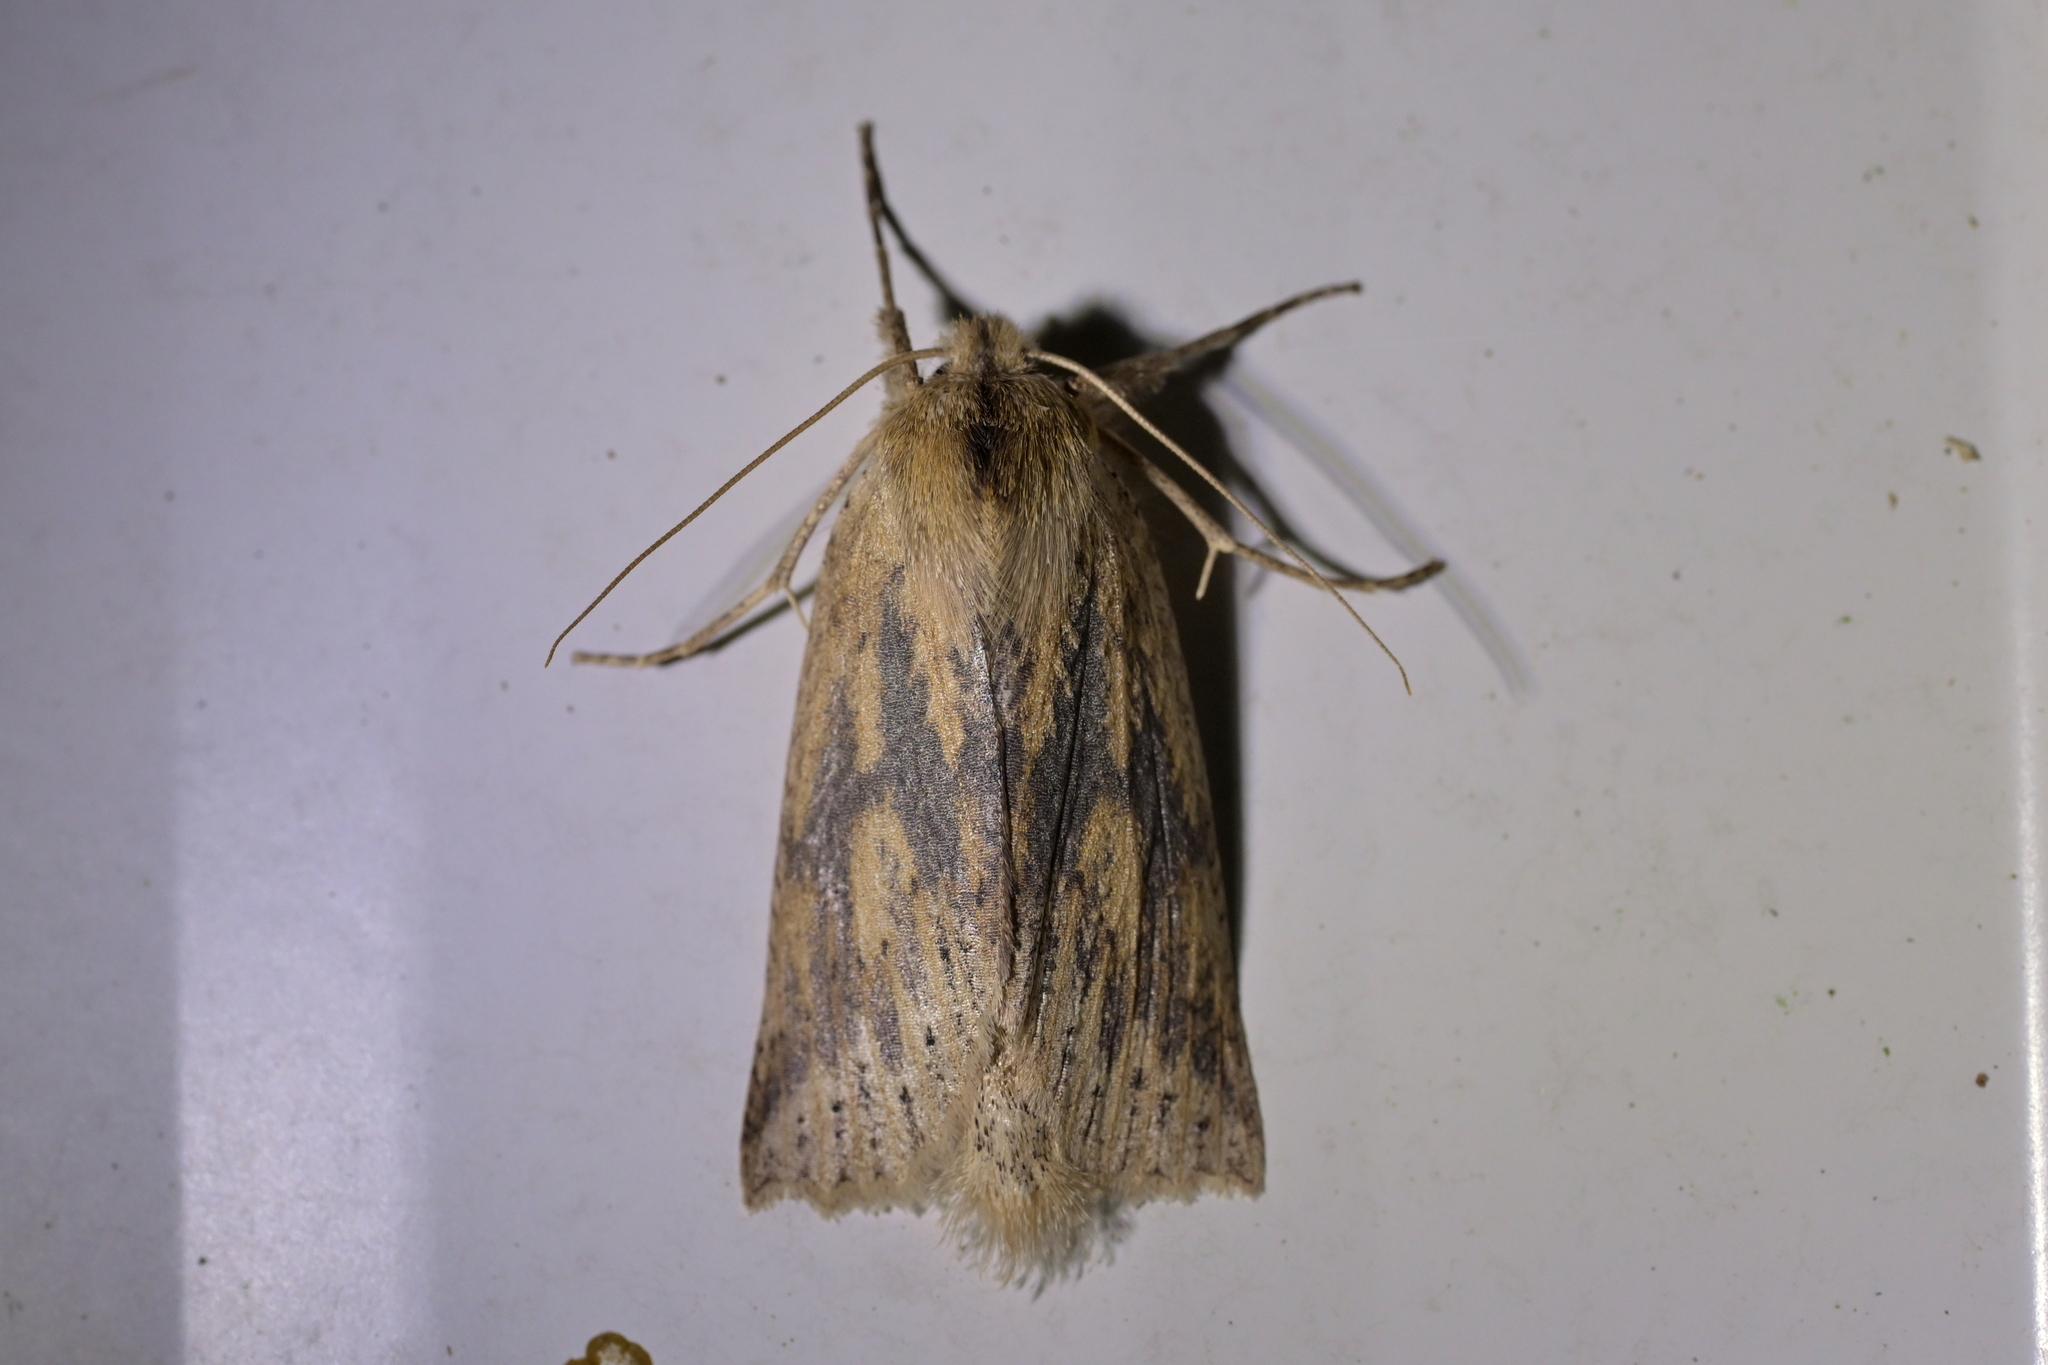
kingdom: Animalia
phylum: Arthropoda
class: Insecta
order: Lepidoptera
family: Geometridae
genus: Declana
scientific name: Declana leptomera
